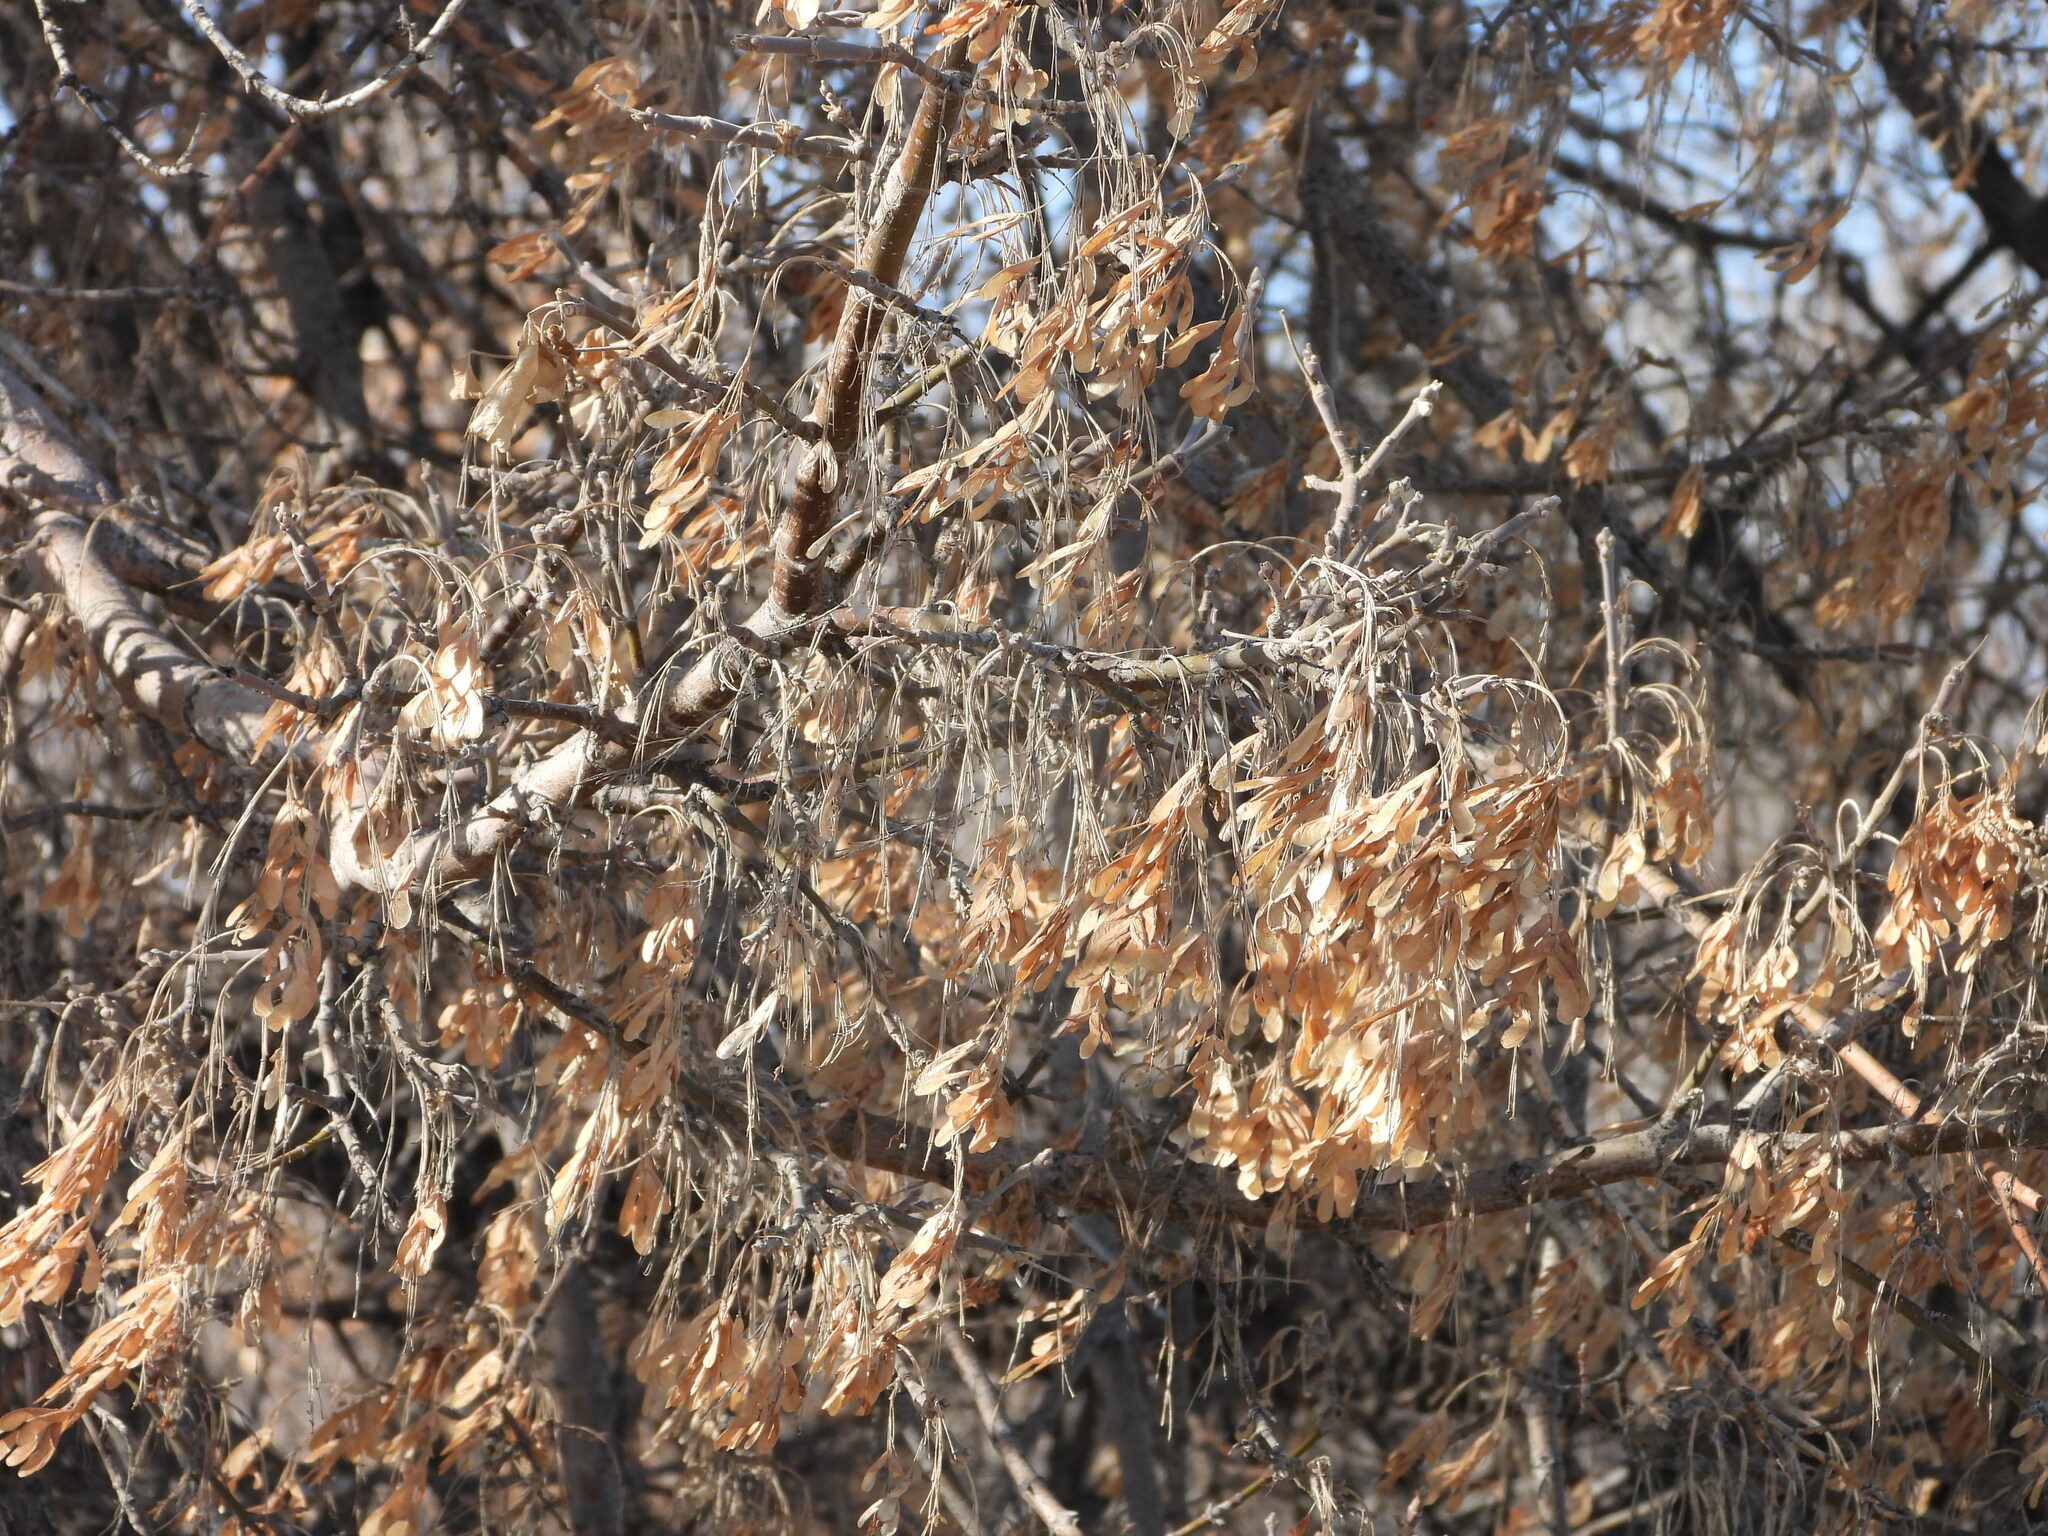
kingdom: Plantae
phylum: Tracheophyta
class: Magnoliopsida
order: Sapindales
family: Sapindaceae
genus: Acer
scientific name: Acer negundo
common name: Ashleaf maple
